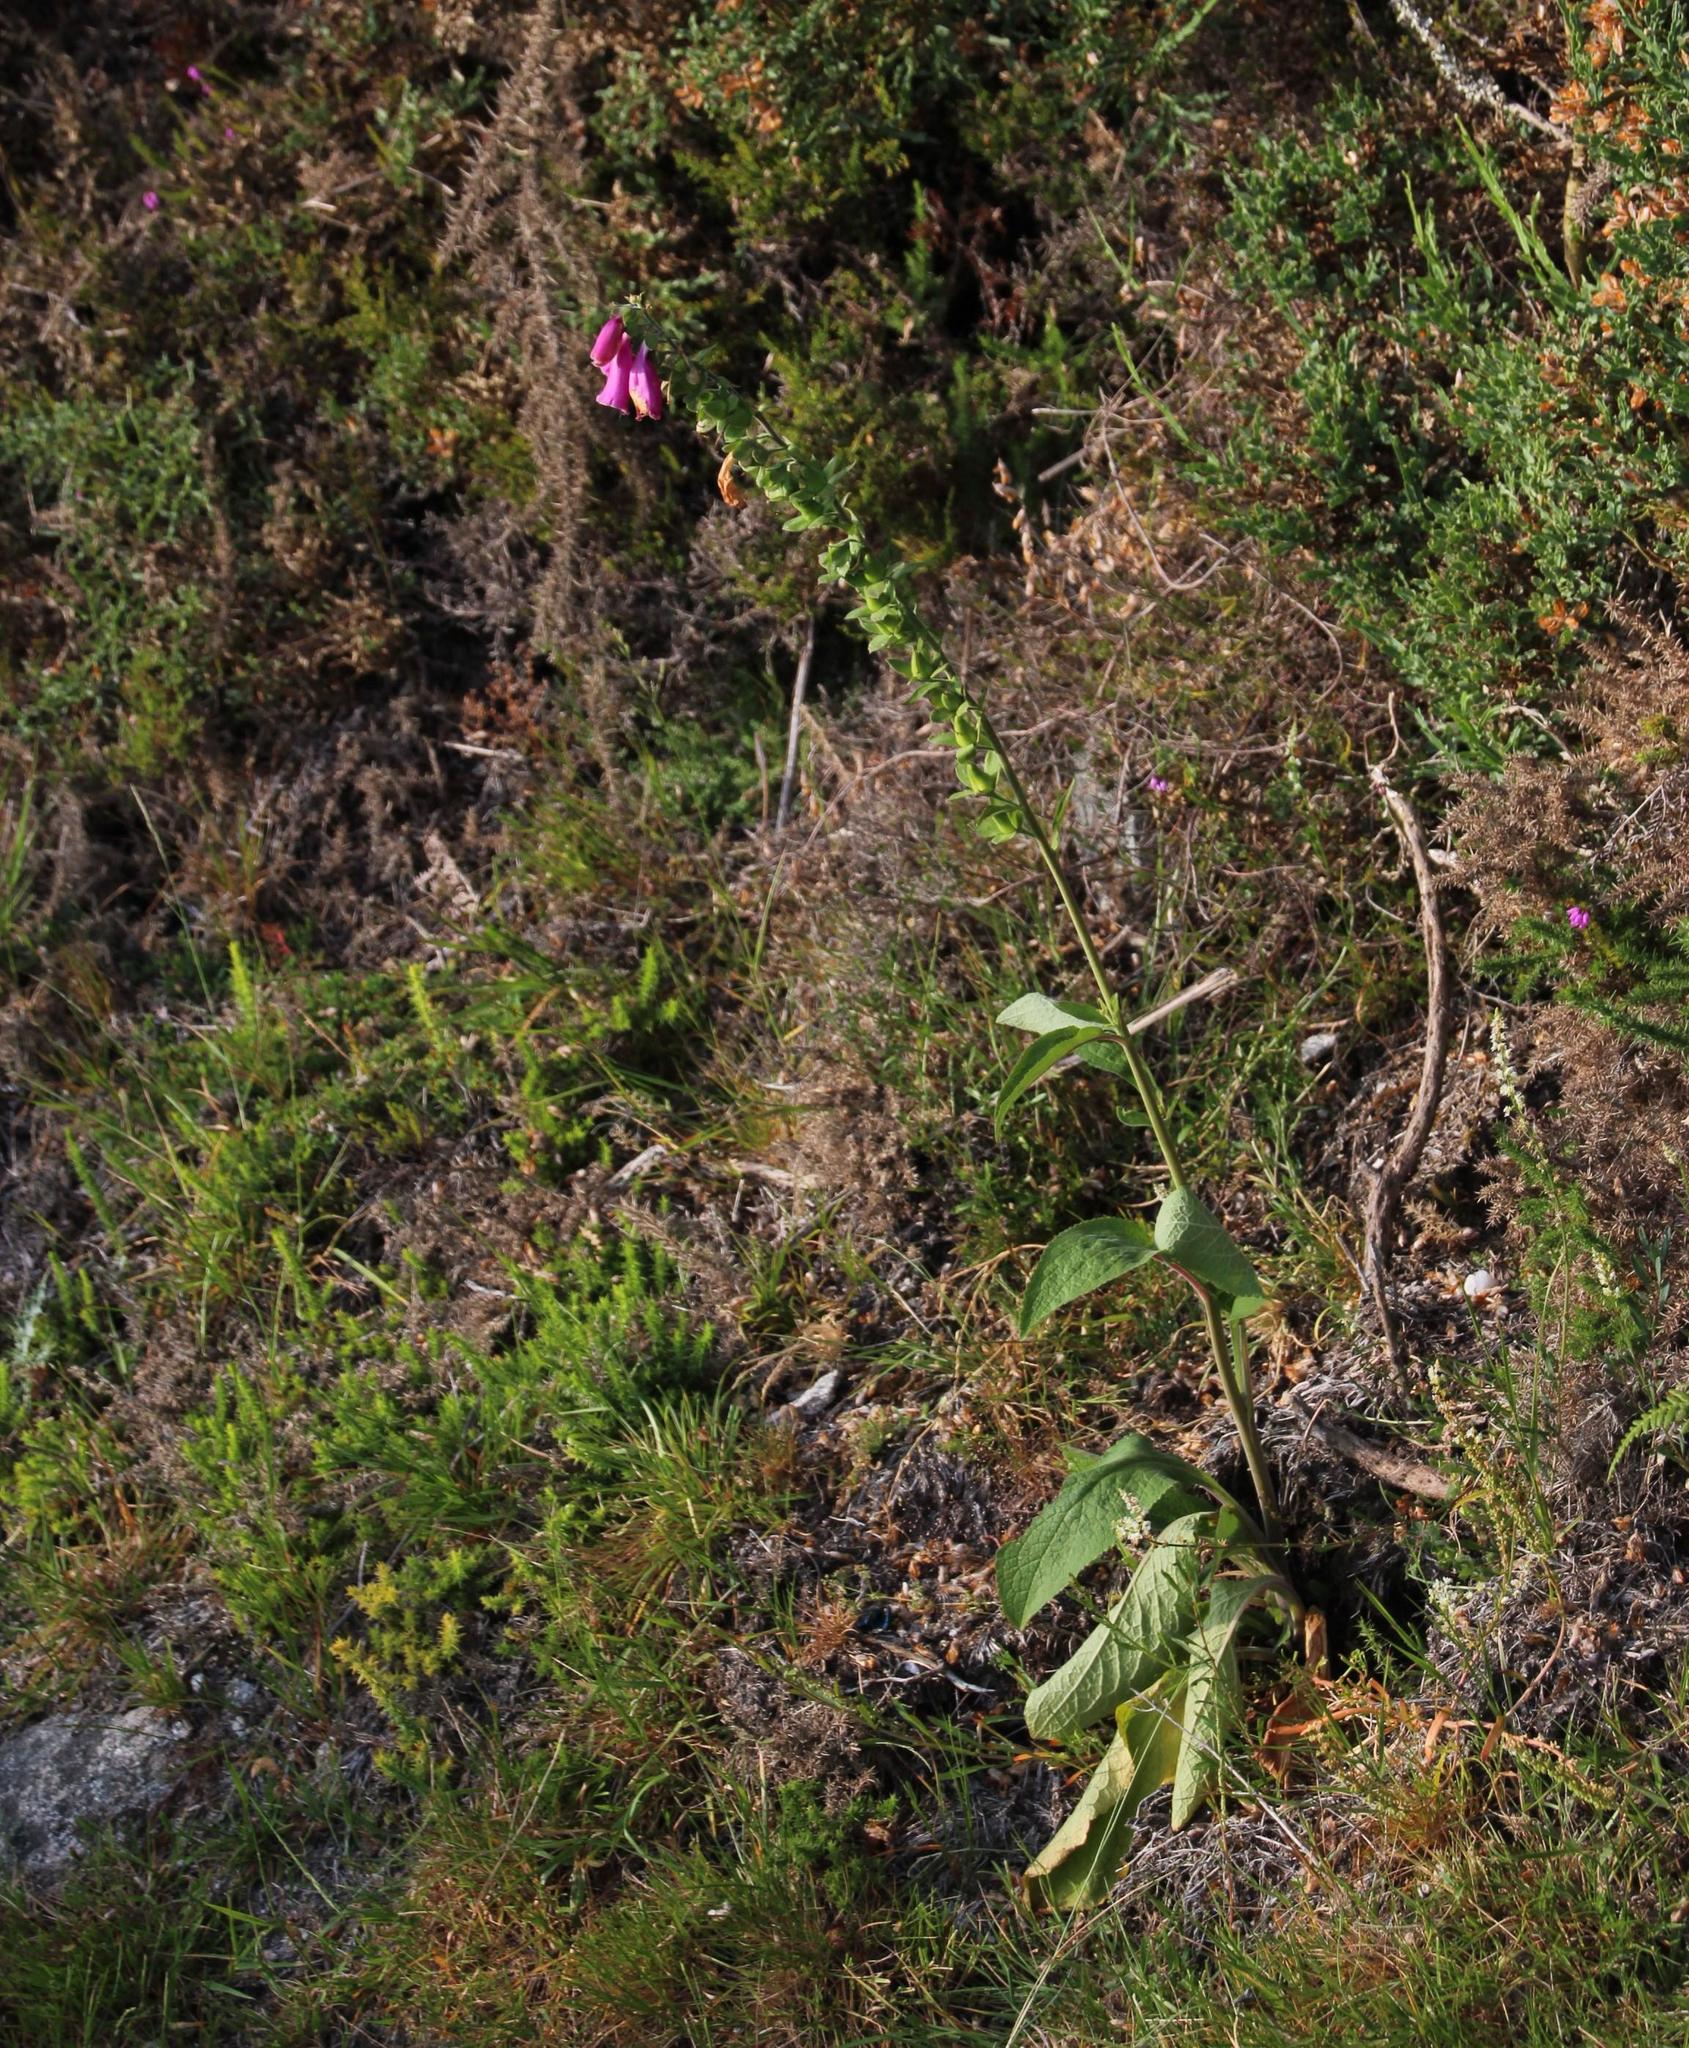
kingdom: Plantae
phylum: Tracheophyta
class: Magnoliopsida
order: Lamiales
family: Plantaginaceae
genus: Digitalis
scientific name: Digitalis purpurea
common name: Foxglove
